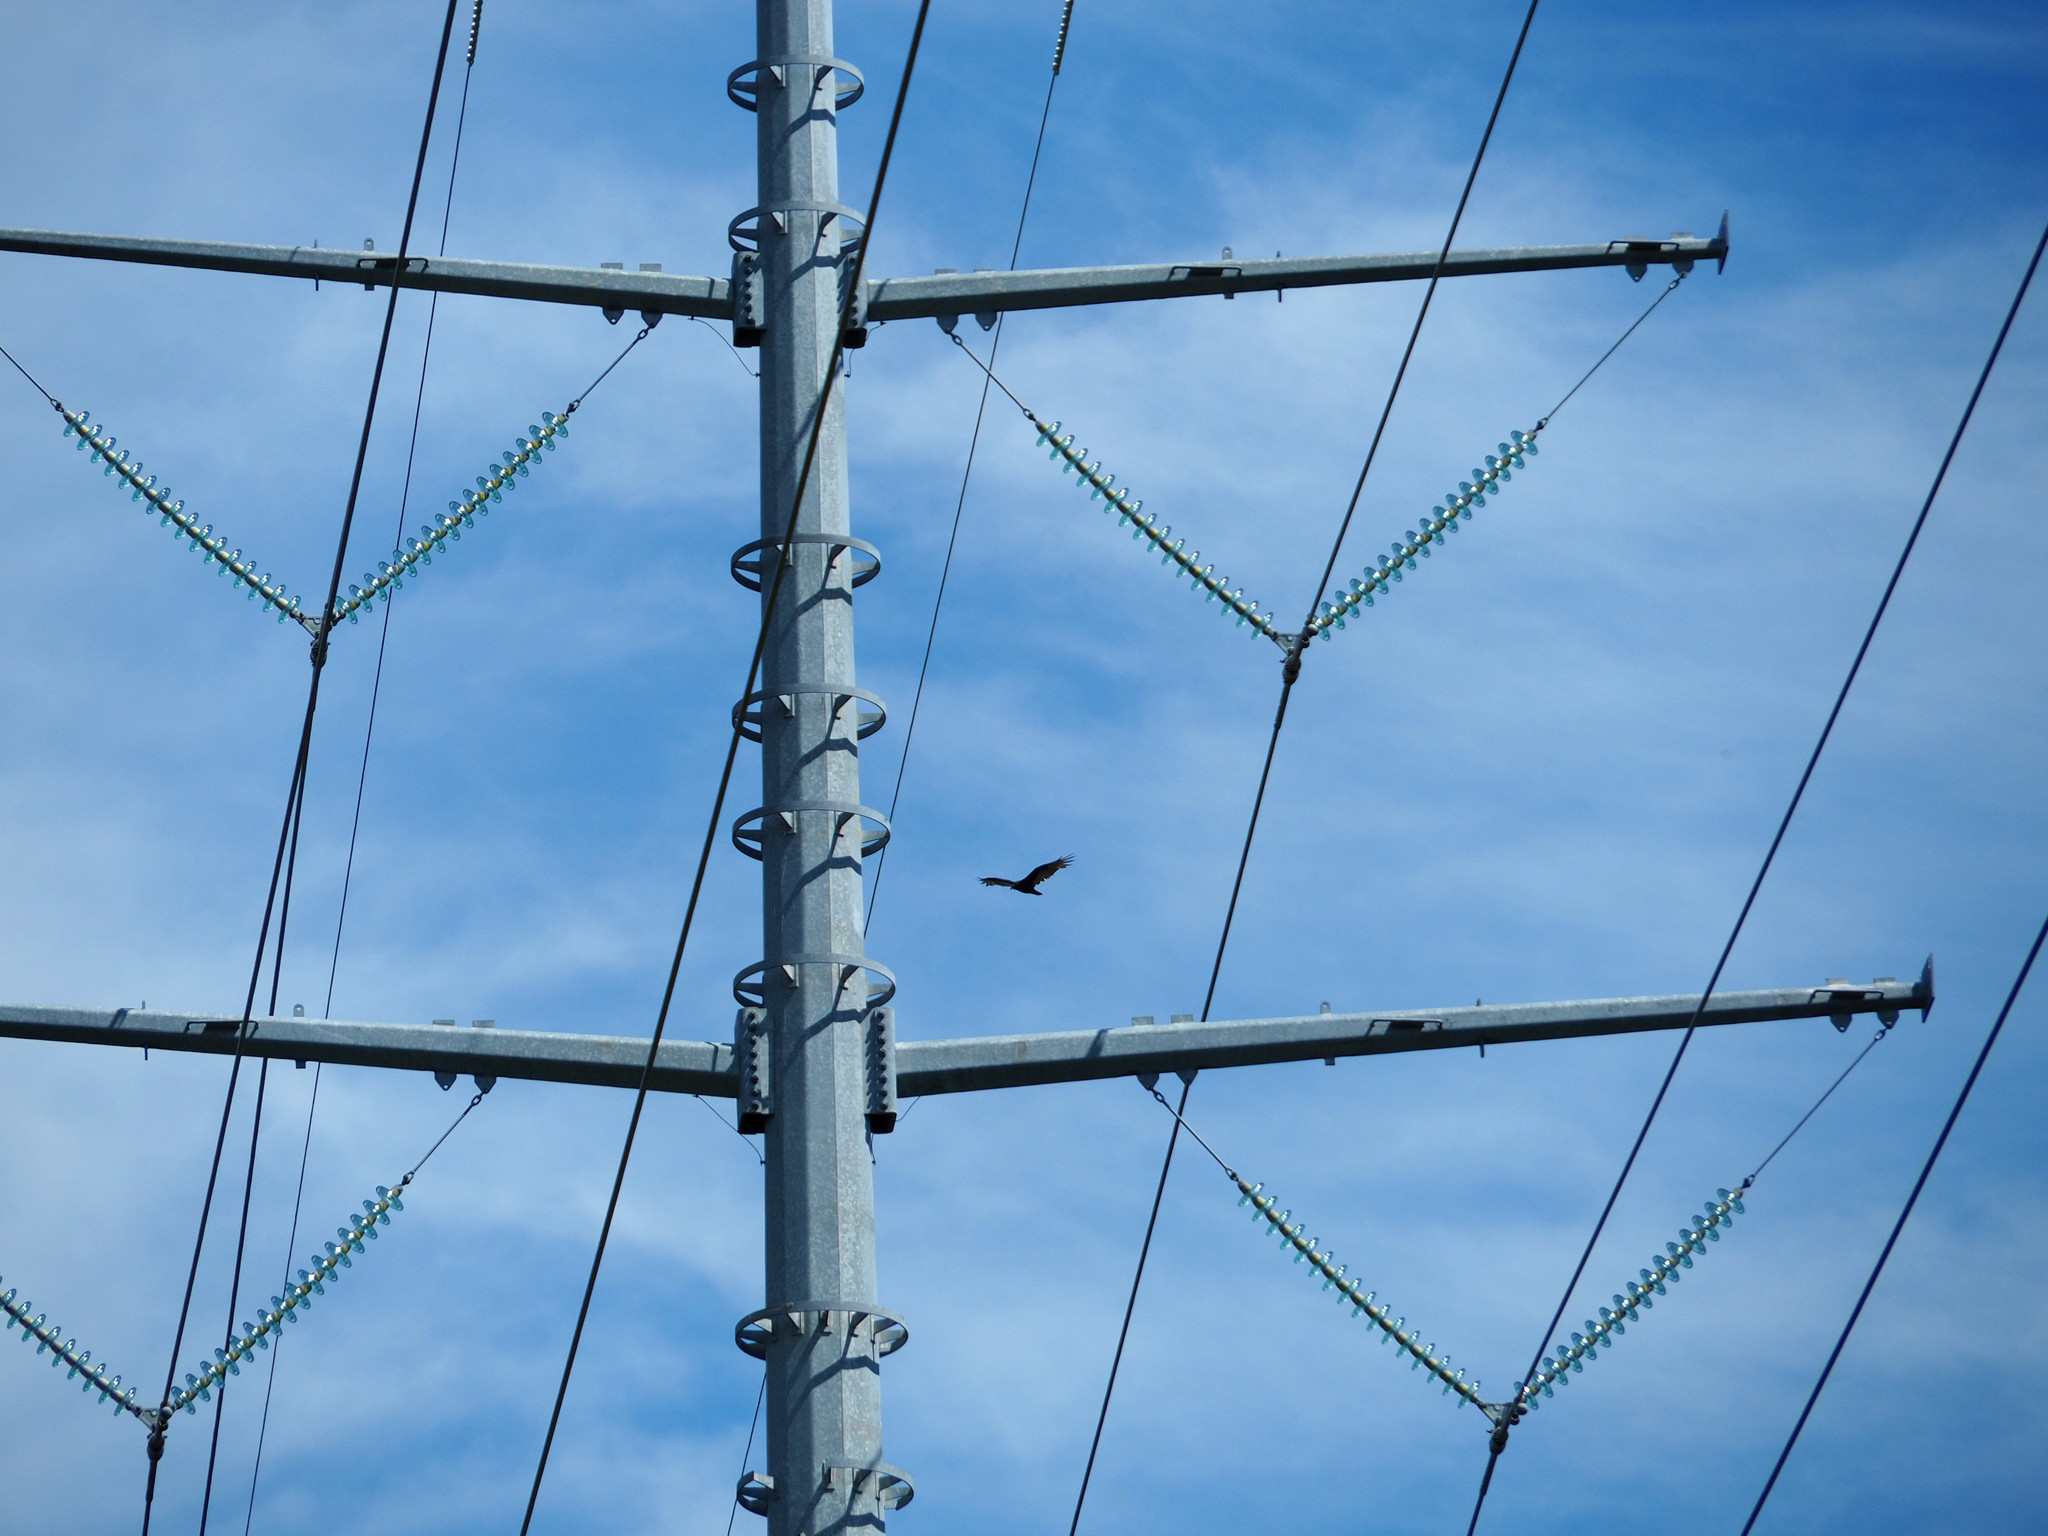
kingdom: Animalia
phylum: Chordata
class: Aves
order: Accipitriformes
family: Cathartidae
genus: Cathartes
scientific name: Cathartes aura
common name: Turkey vulture
